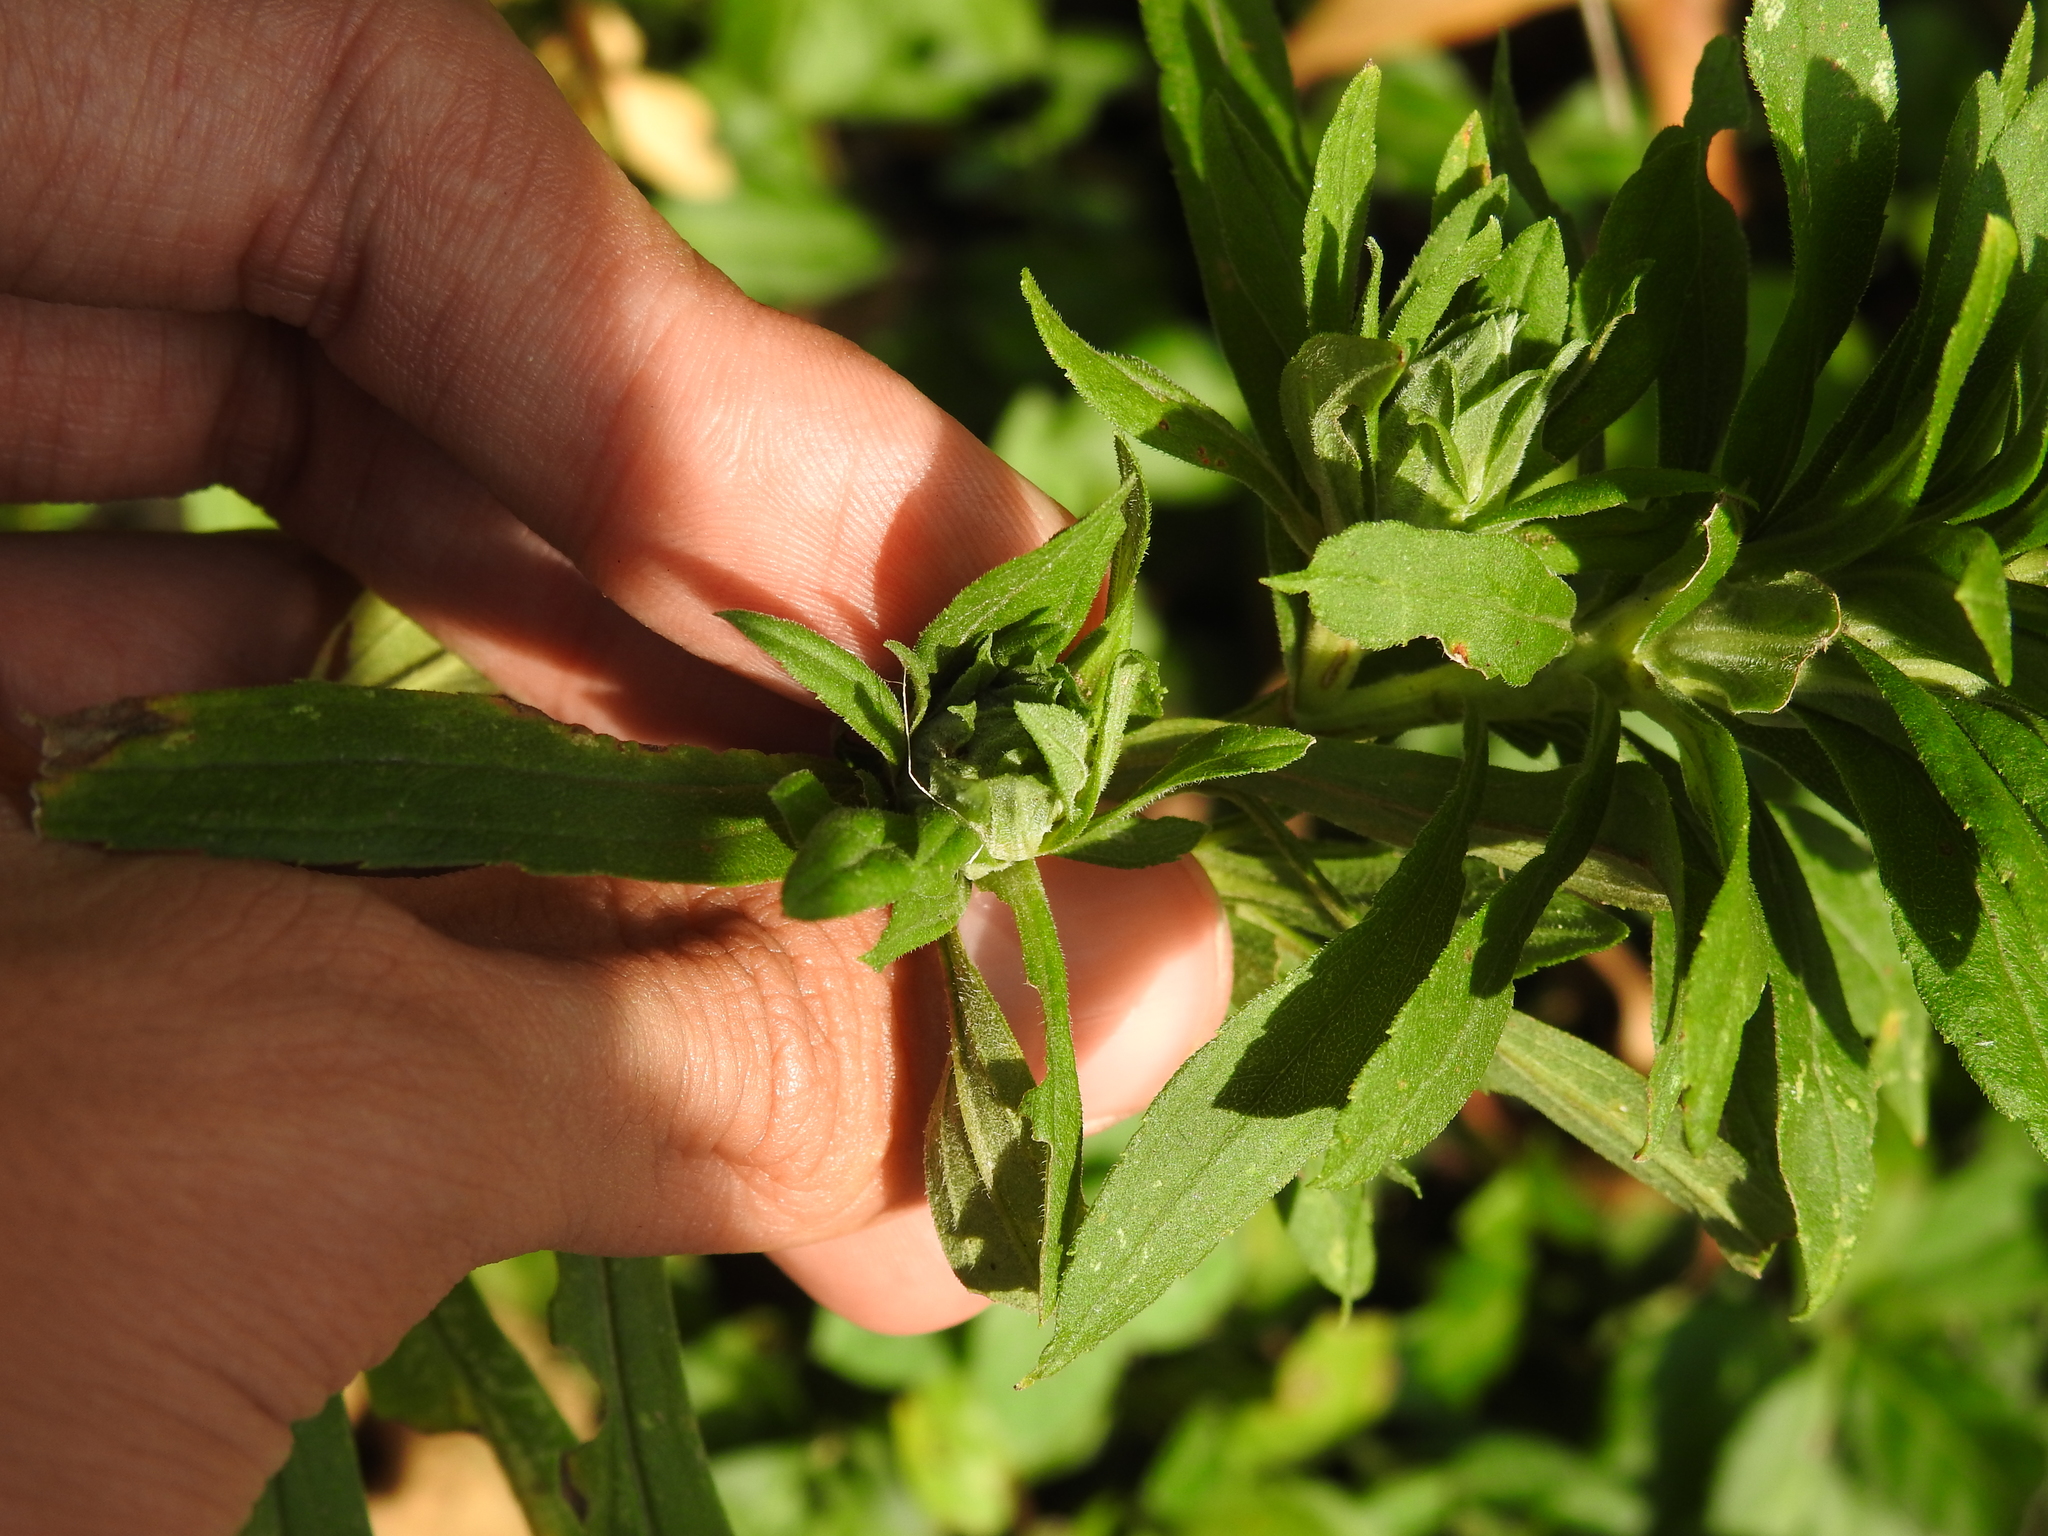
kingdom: Animalia
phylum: Arthropoda
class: Insecta
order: Diptera
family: Tephritidae
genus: Procecidochares
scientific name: Procecidochares atra
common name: Goldenrod brussels sprout gall fly
